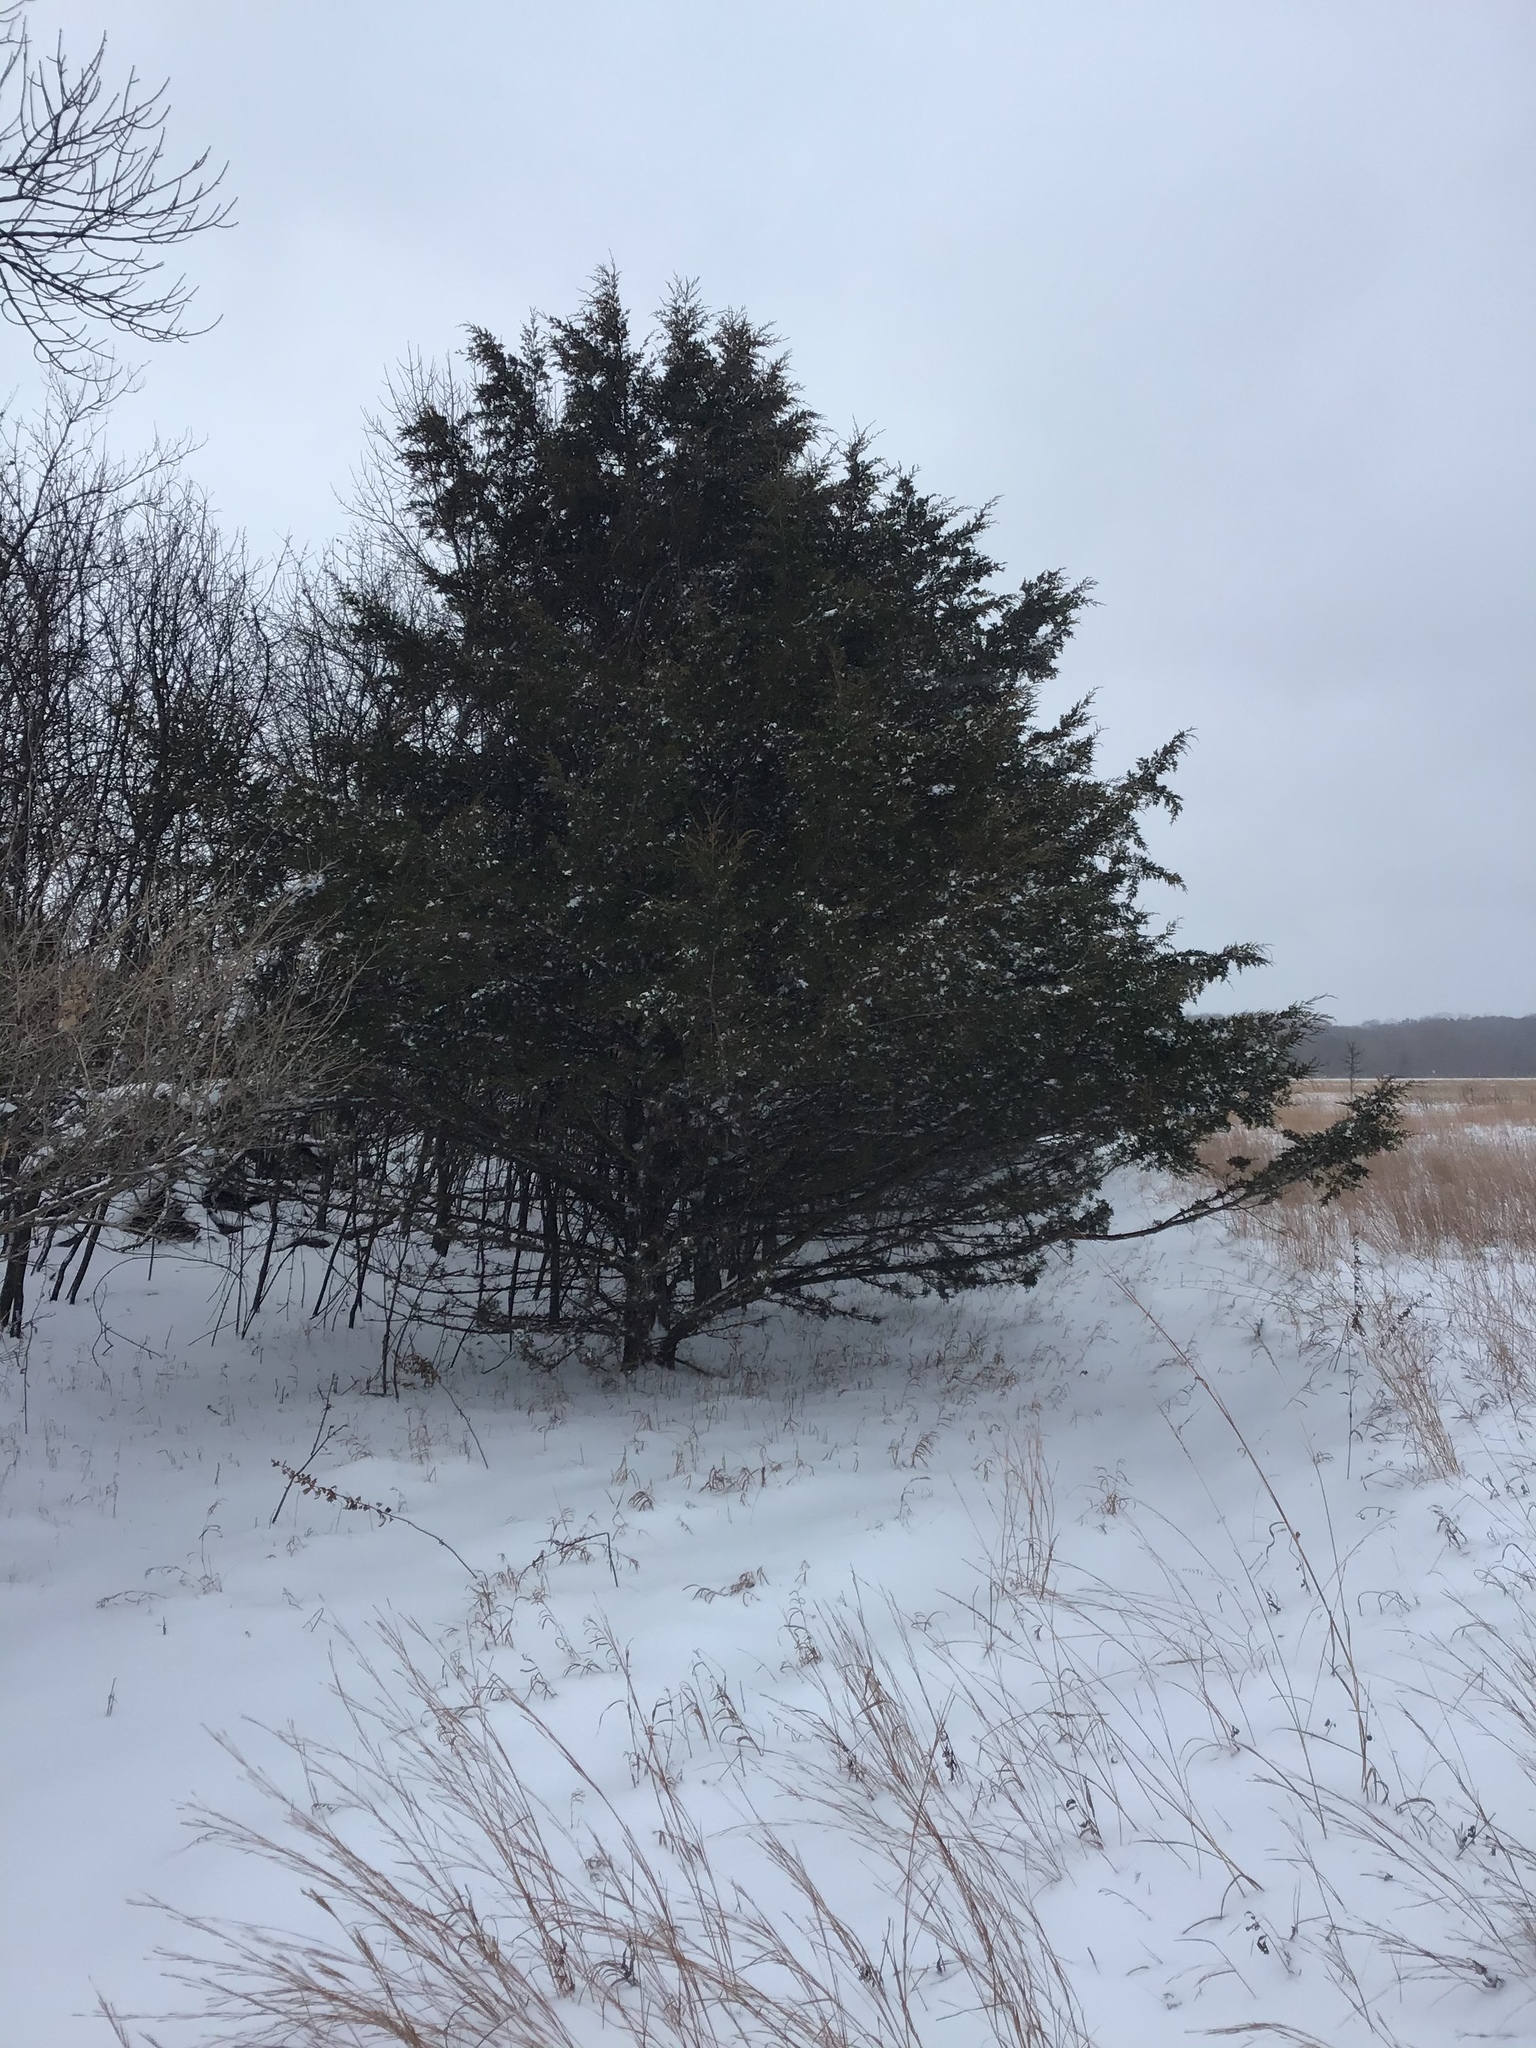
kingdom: Plantae
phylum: Tracheophyta
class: Pinopsida
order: Pinales
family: Cupressaceae
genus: Juniperus
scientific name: Juniperus virginiana
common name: Red juniper
